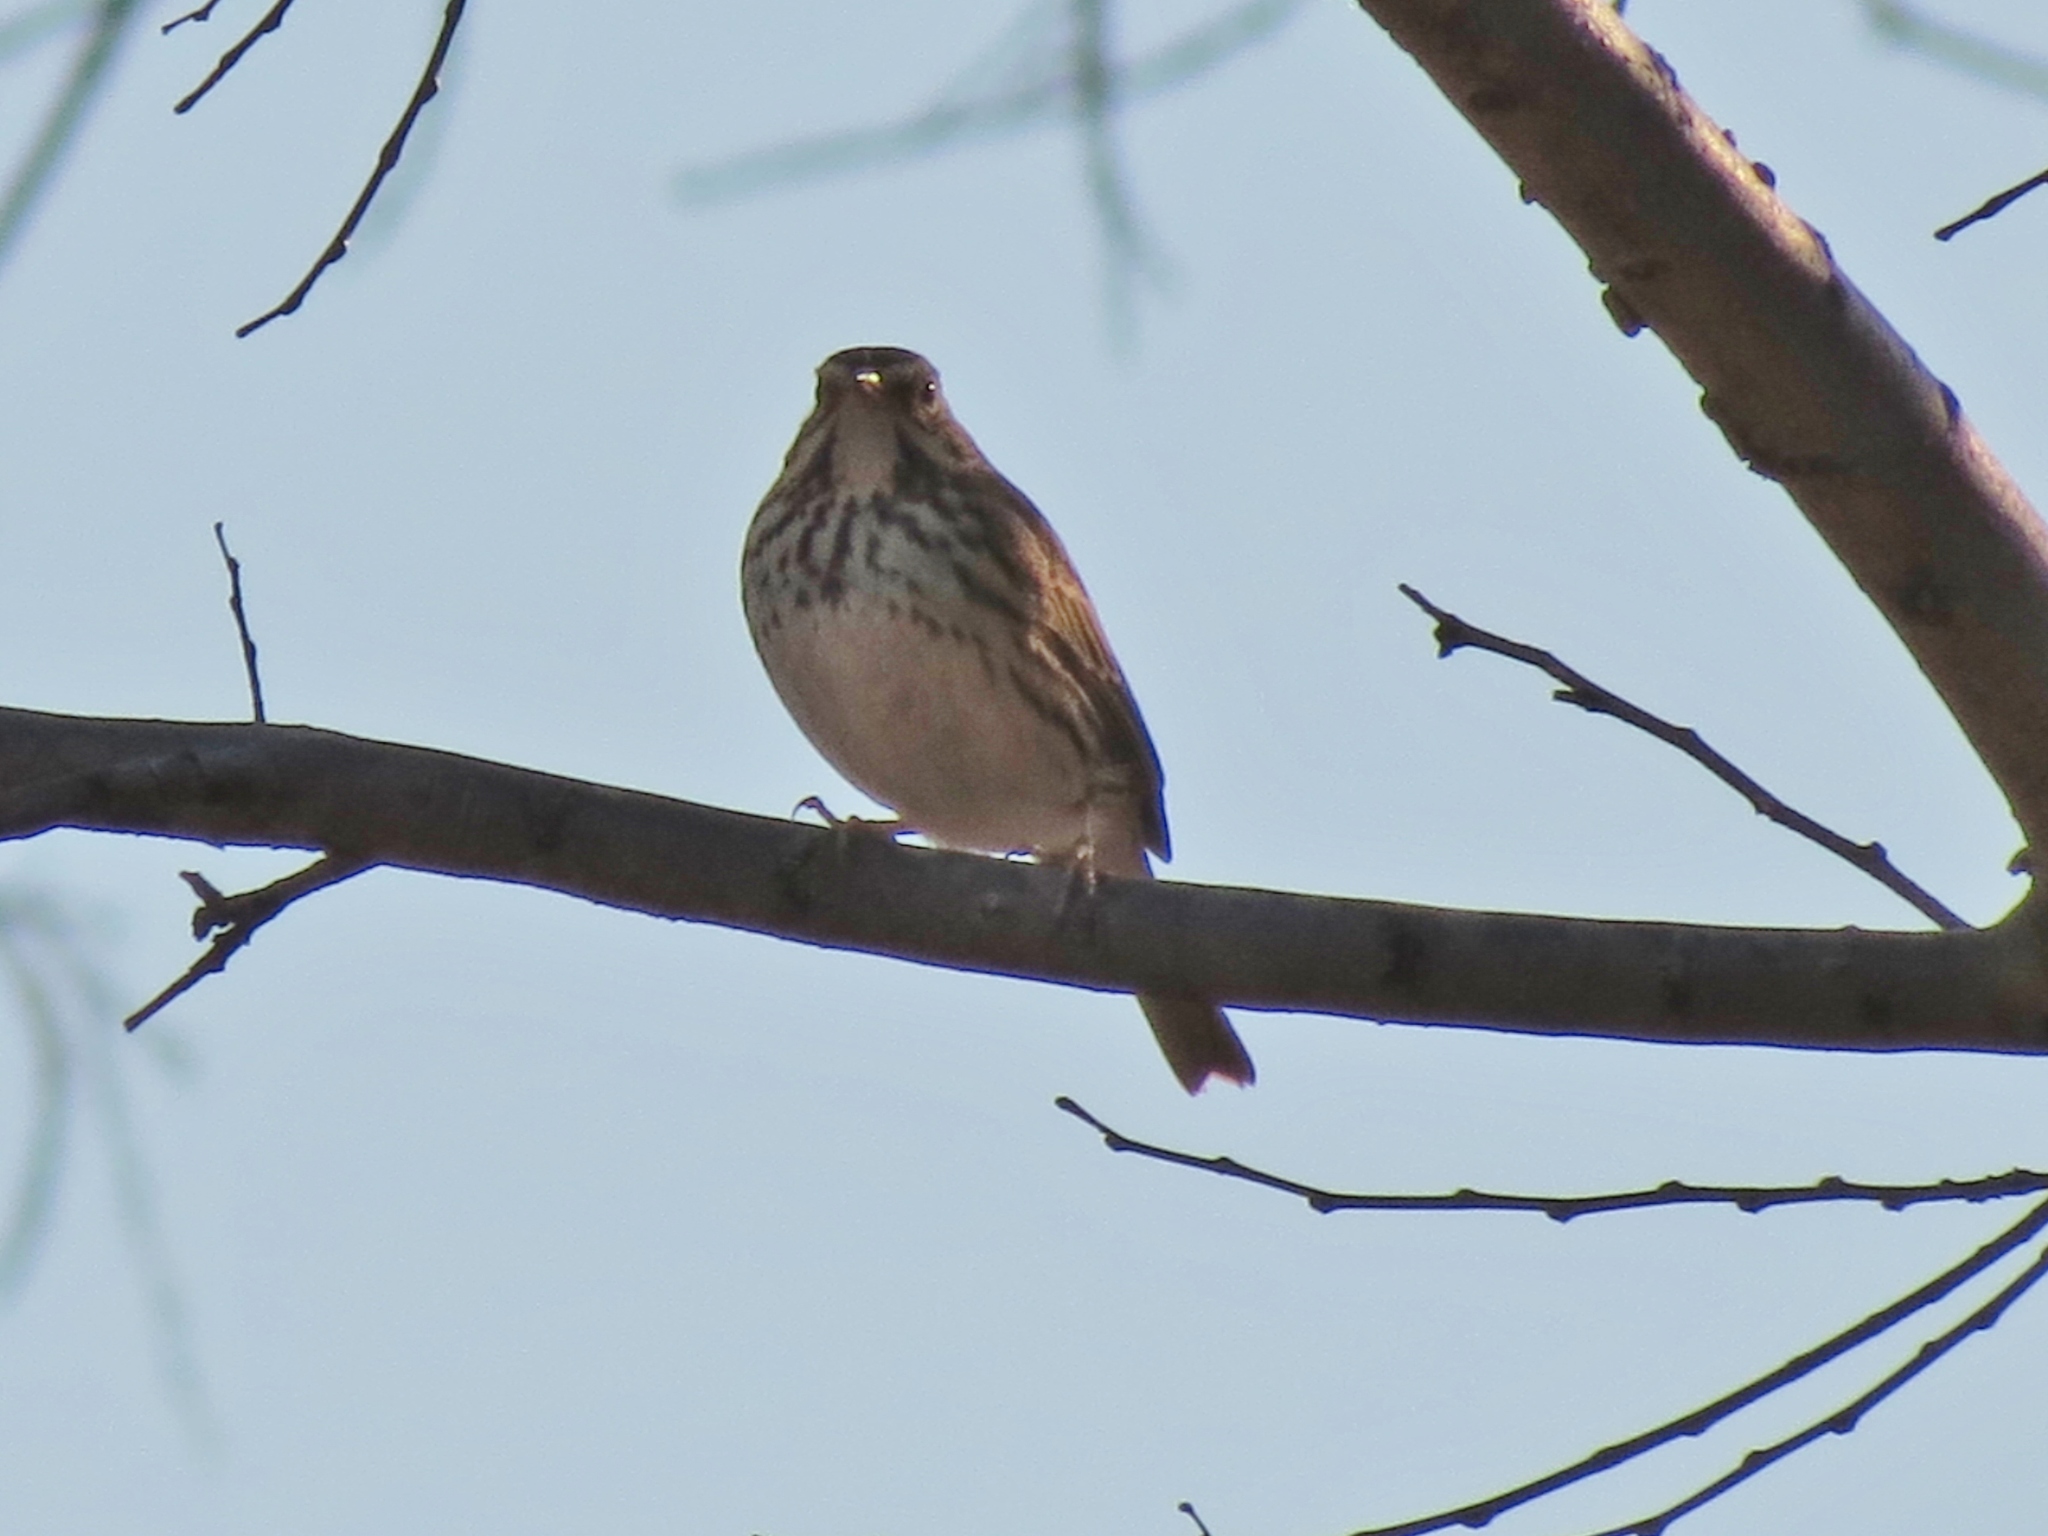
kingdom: Animalia
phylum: Chordata
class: Aves
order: Passeriformes
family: Passerellidae
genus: Melospiza
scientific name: Melospiza melodia
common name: Song sparrow
